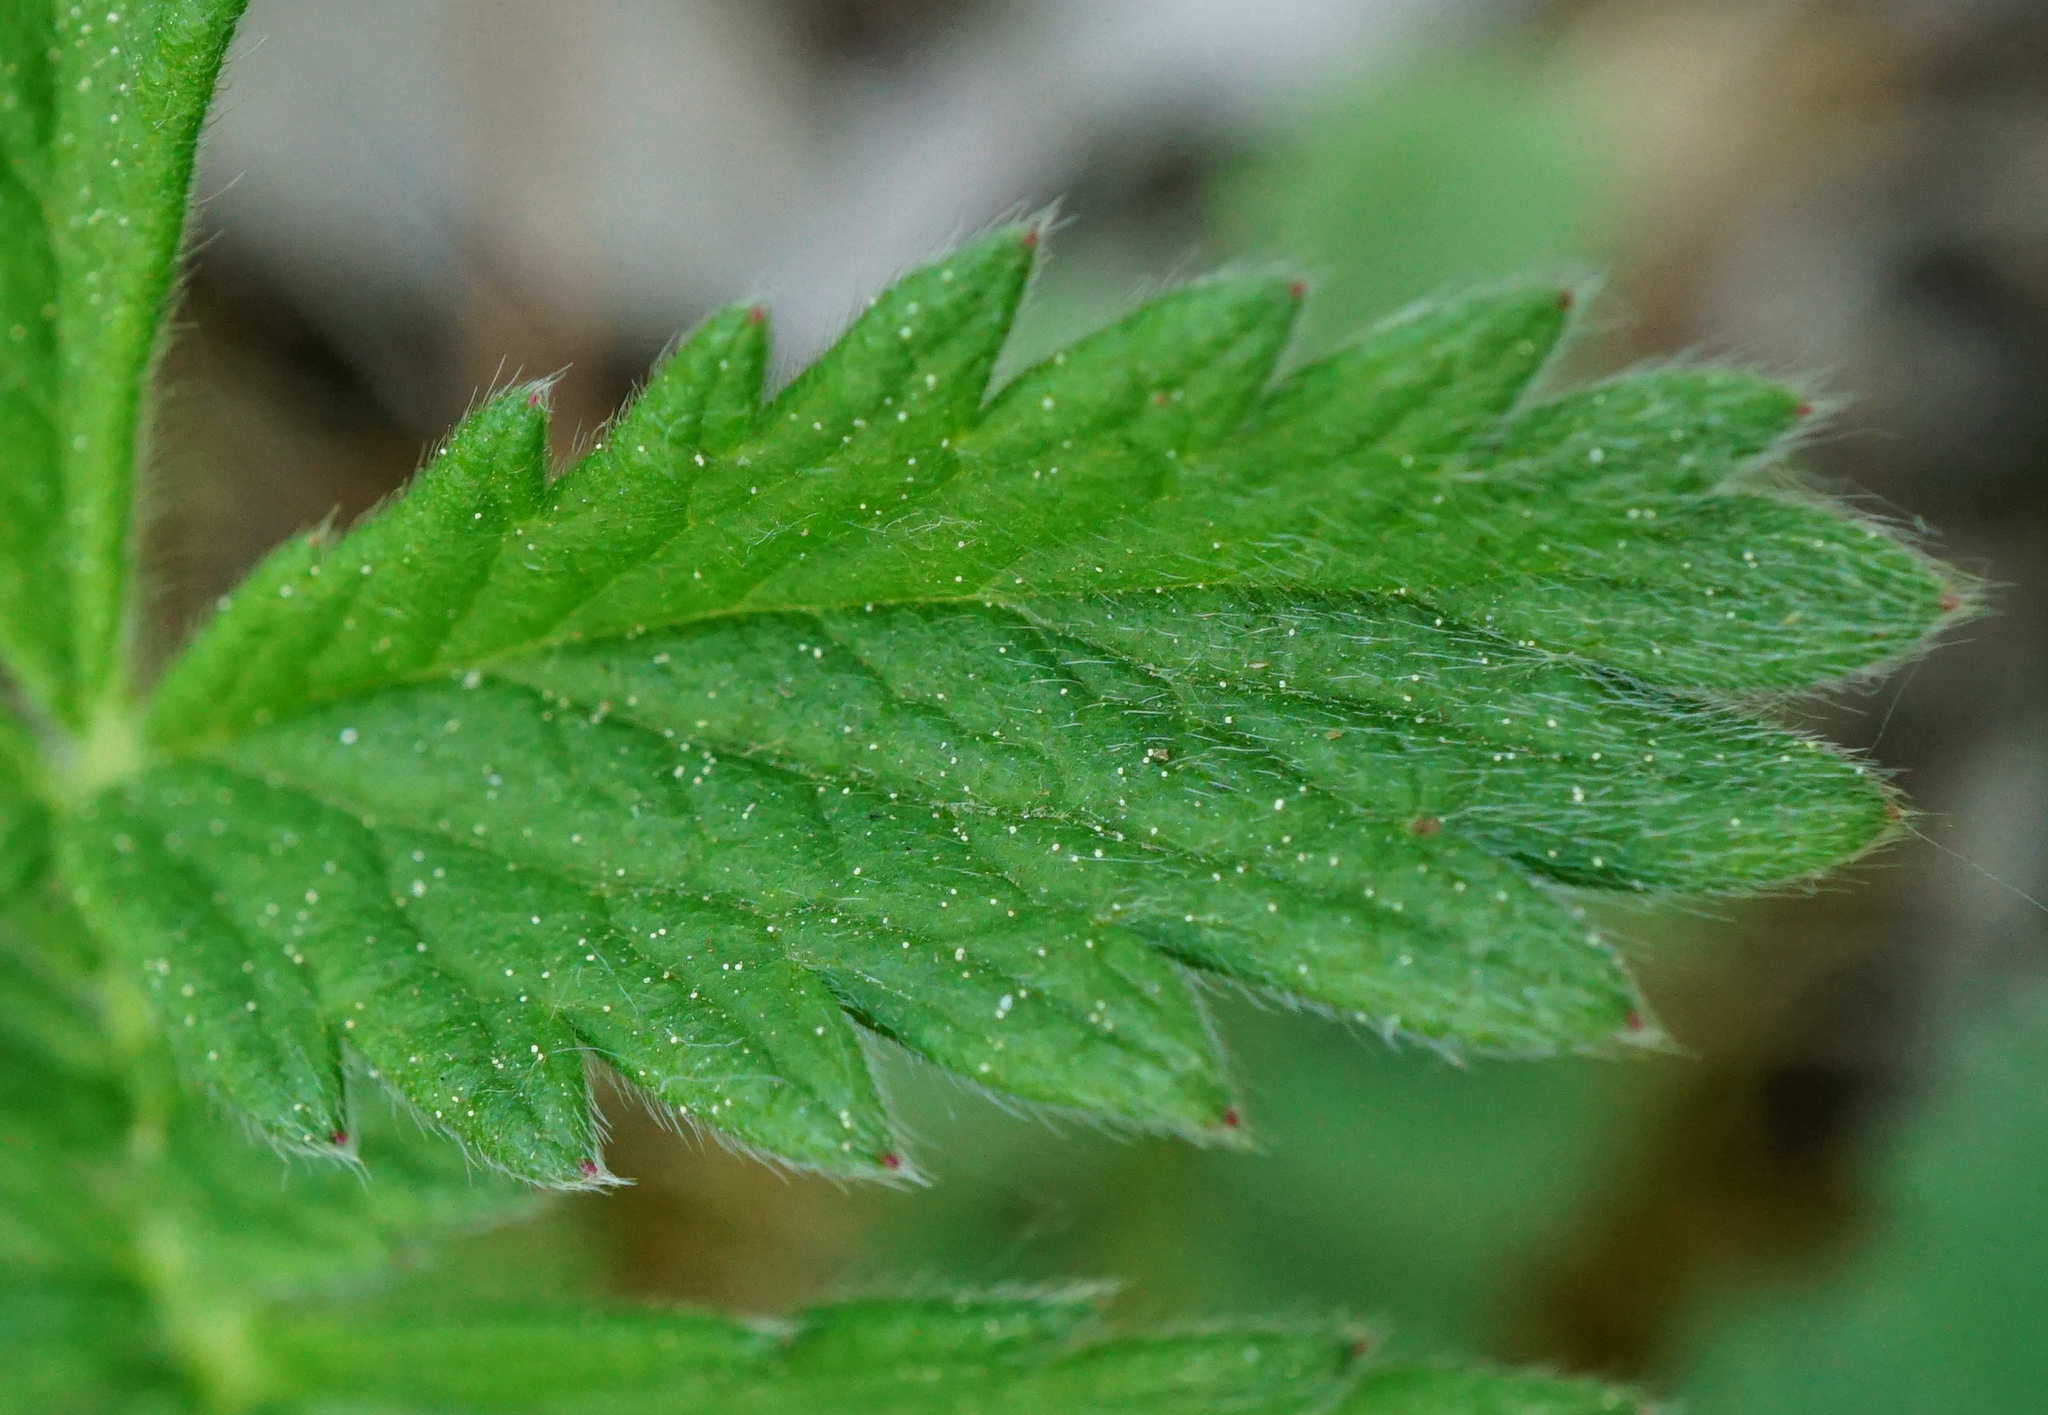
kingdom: Plantae
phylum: Tracheophyta
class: Magnoliopsida
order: Rosales
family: Rosaceae
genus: Agrimonia
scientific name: Agrimonia eupatoria
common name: Agrimony
